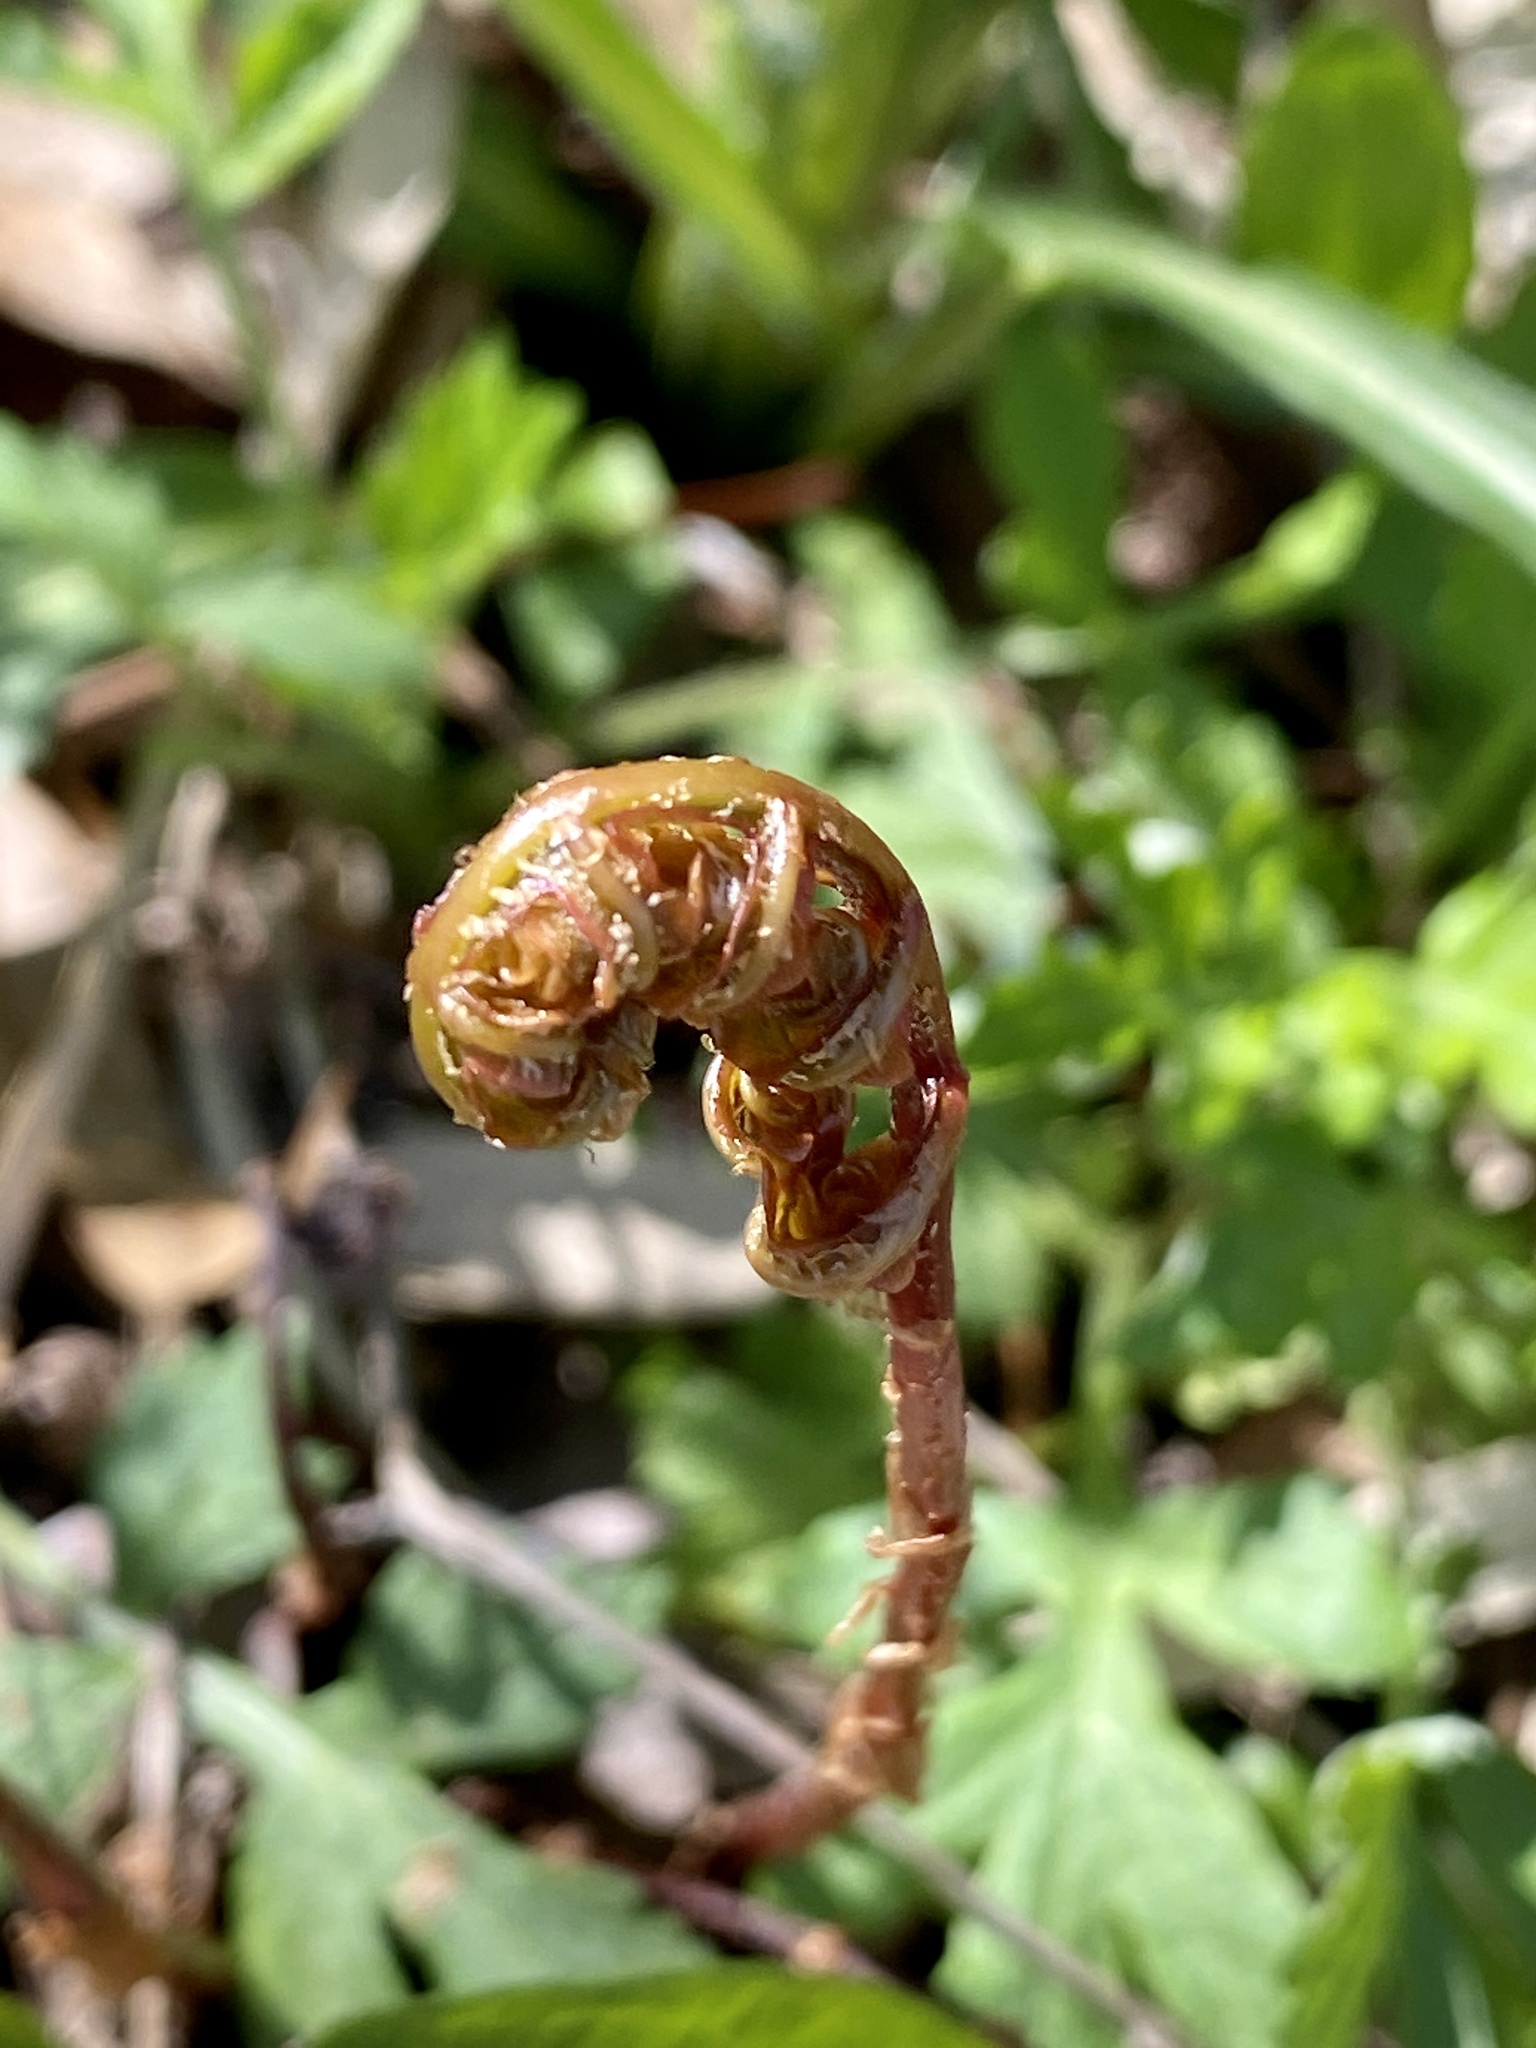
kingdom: Plantae
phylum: Tracheophyta
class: Polypodiopsida
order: Polypodiales
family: Onocleaceae
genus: Onoclea
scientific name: Onoclea sensibilis
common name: Sensitive fern
